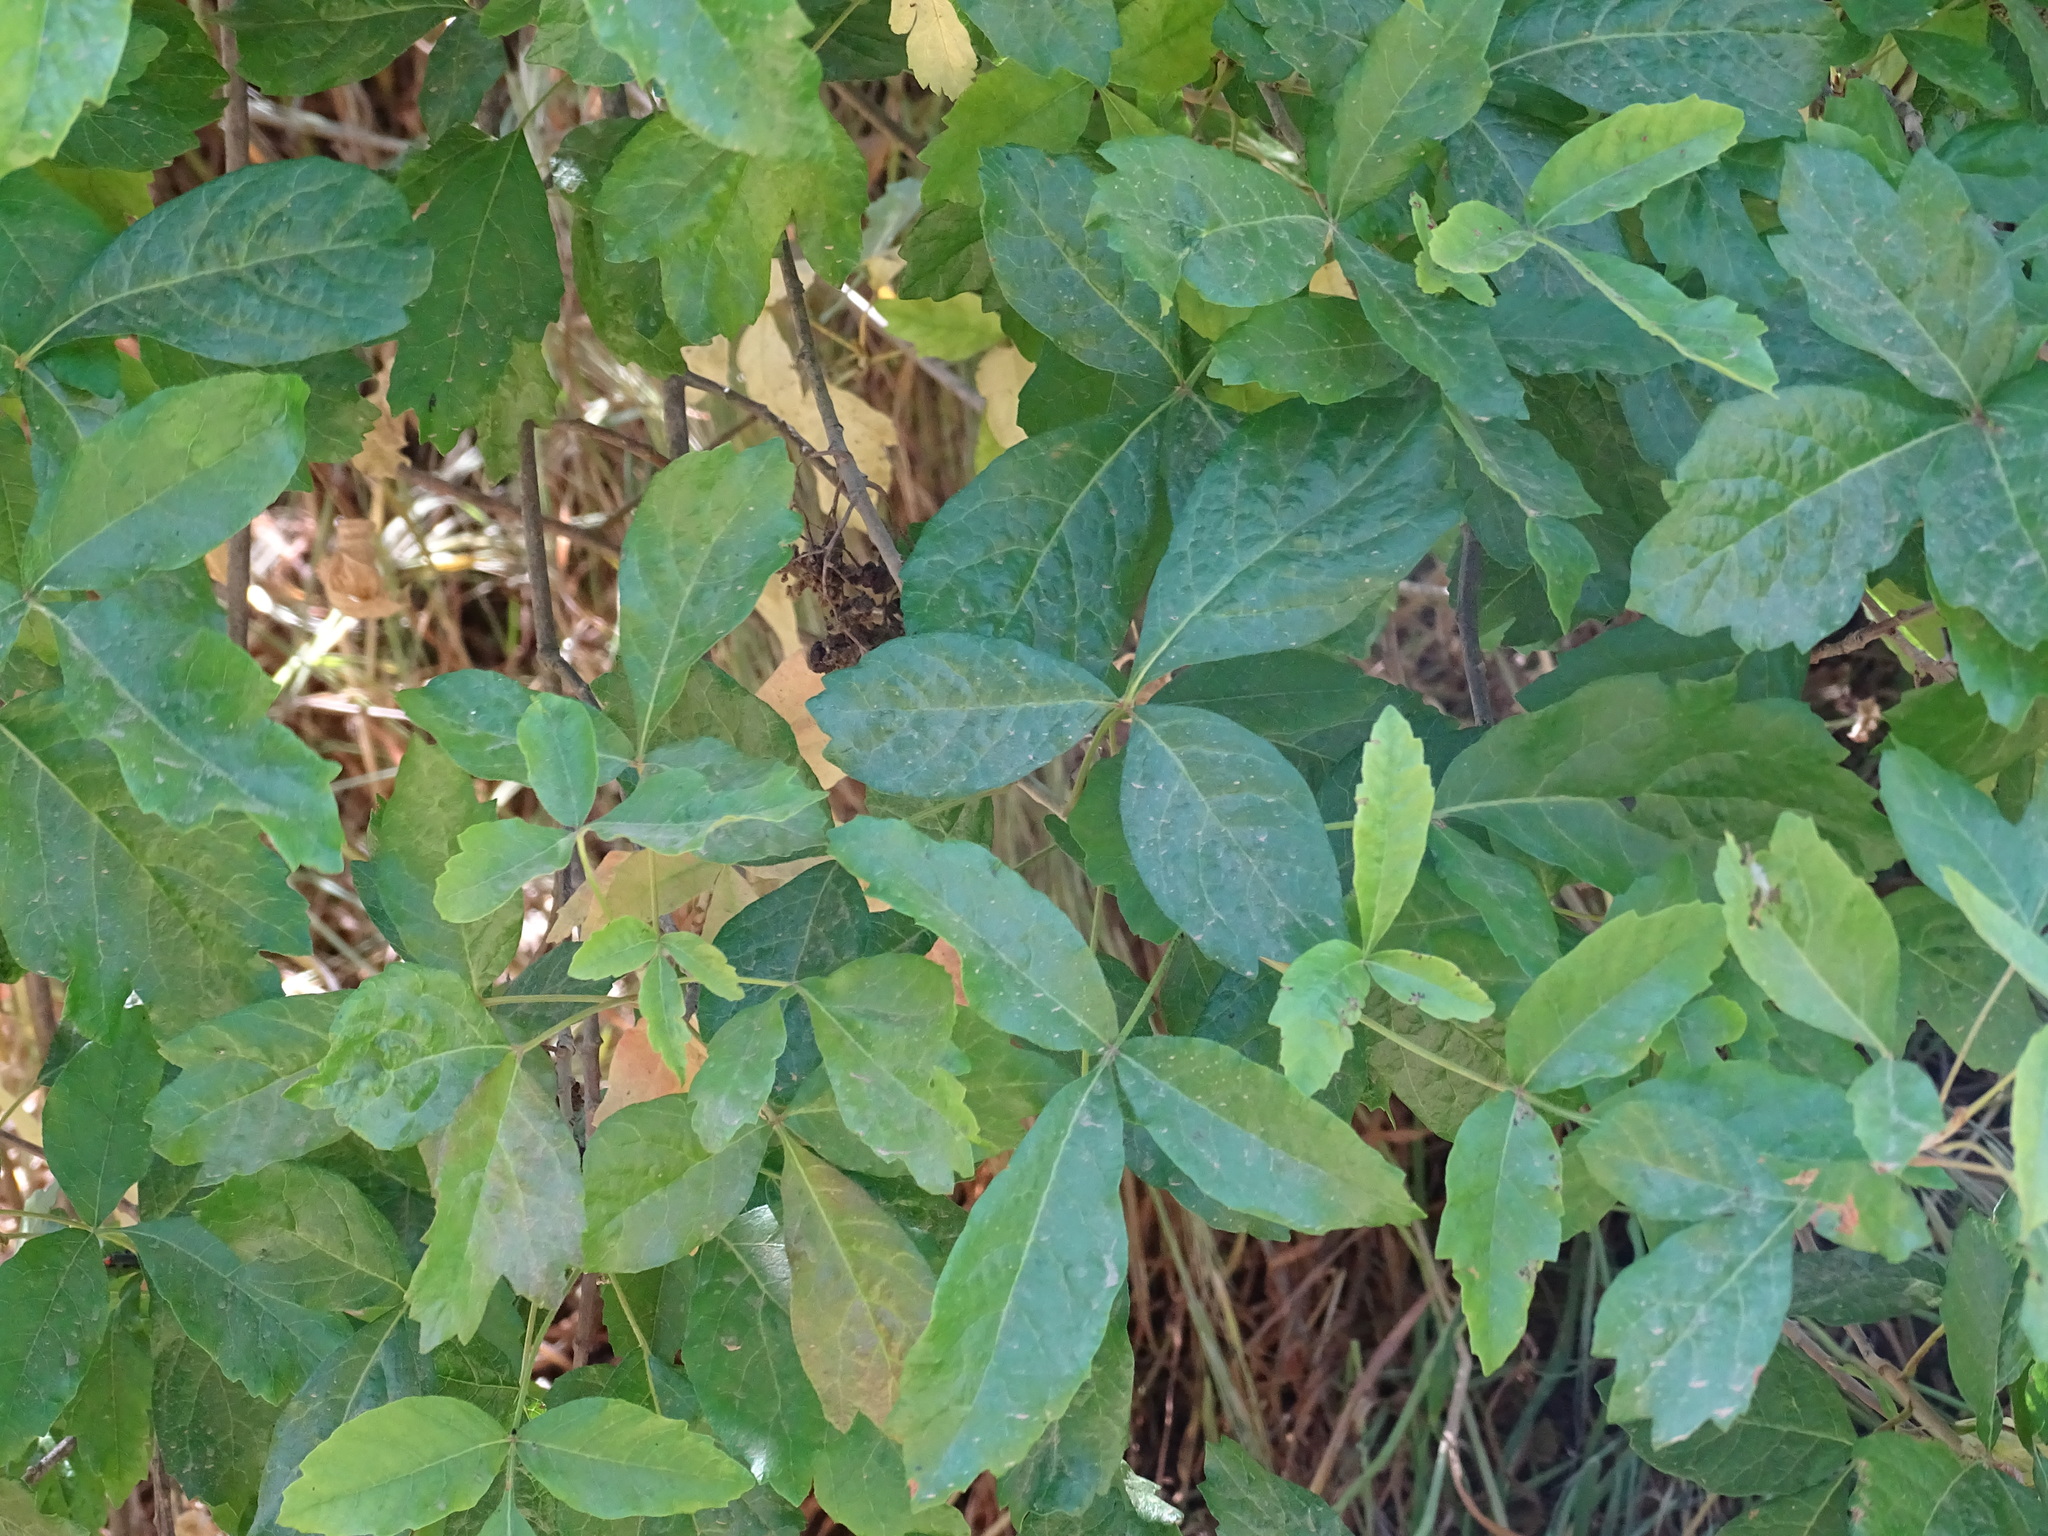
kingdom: Plantae
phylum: Tracheophyta
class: Magnoliopsida
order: Sapindales
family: Anacardiaceae
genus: Toxicodendron
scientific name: Toxicodendron diversilobum
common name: Pacific poison-oak
